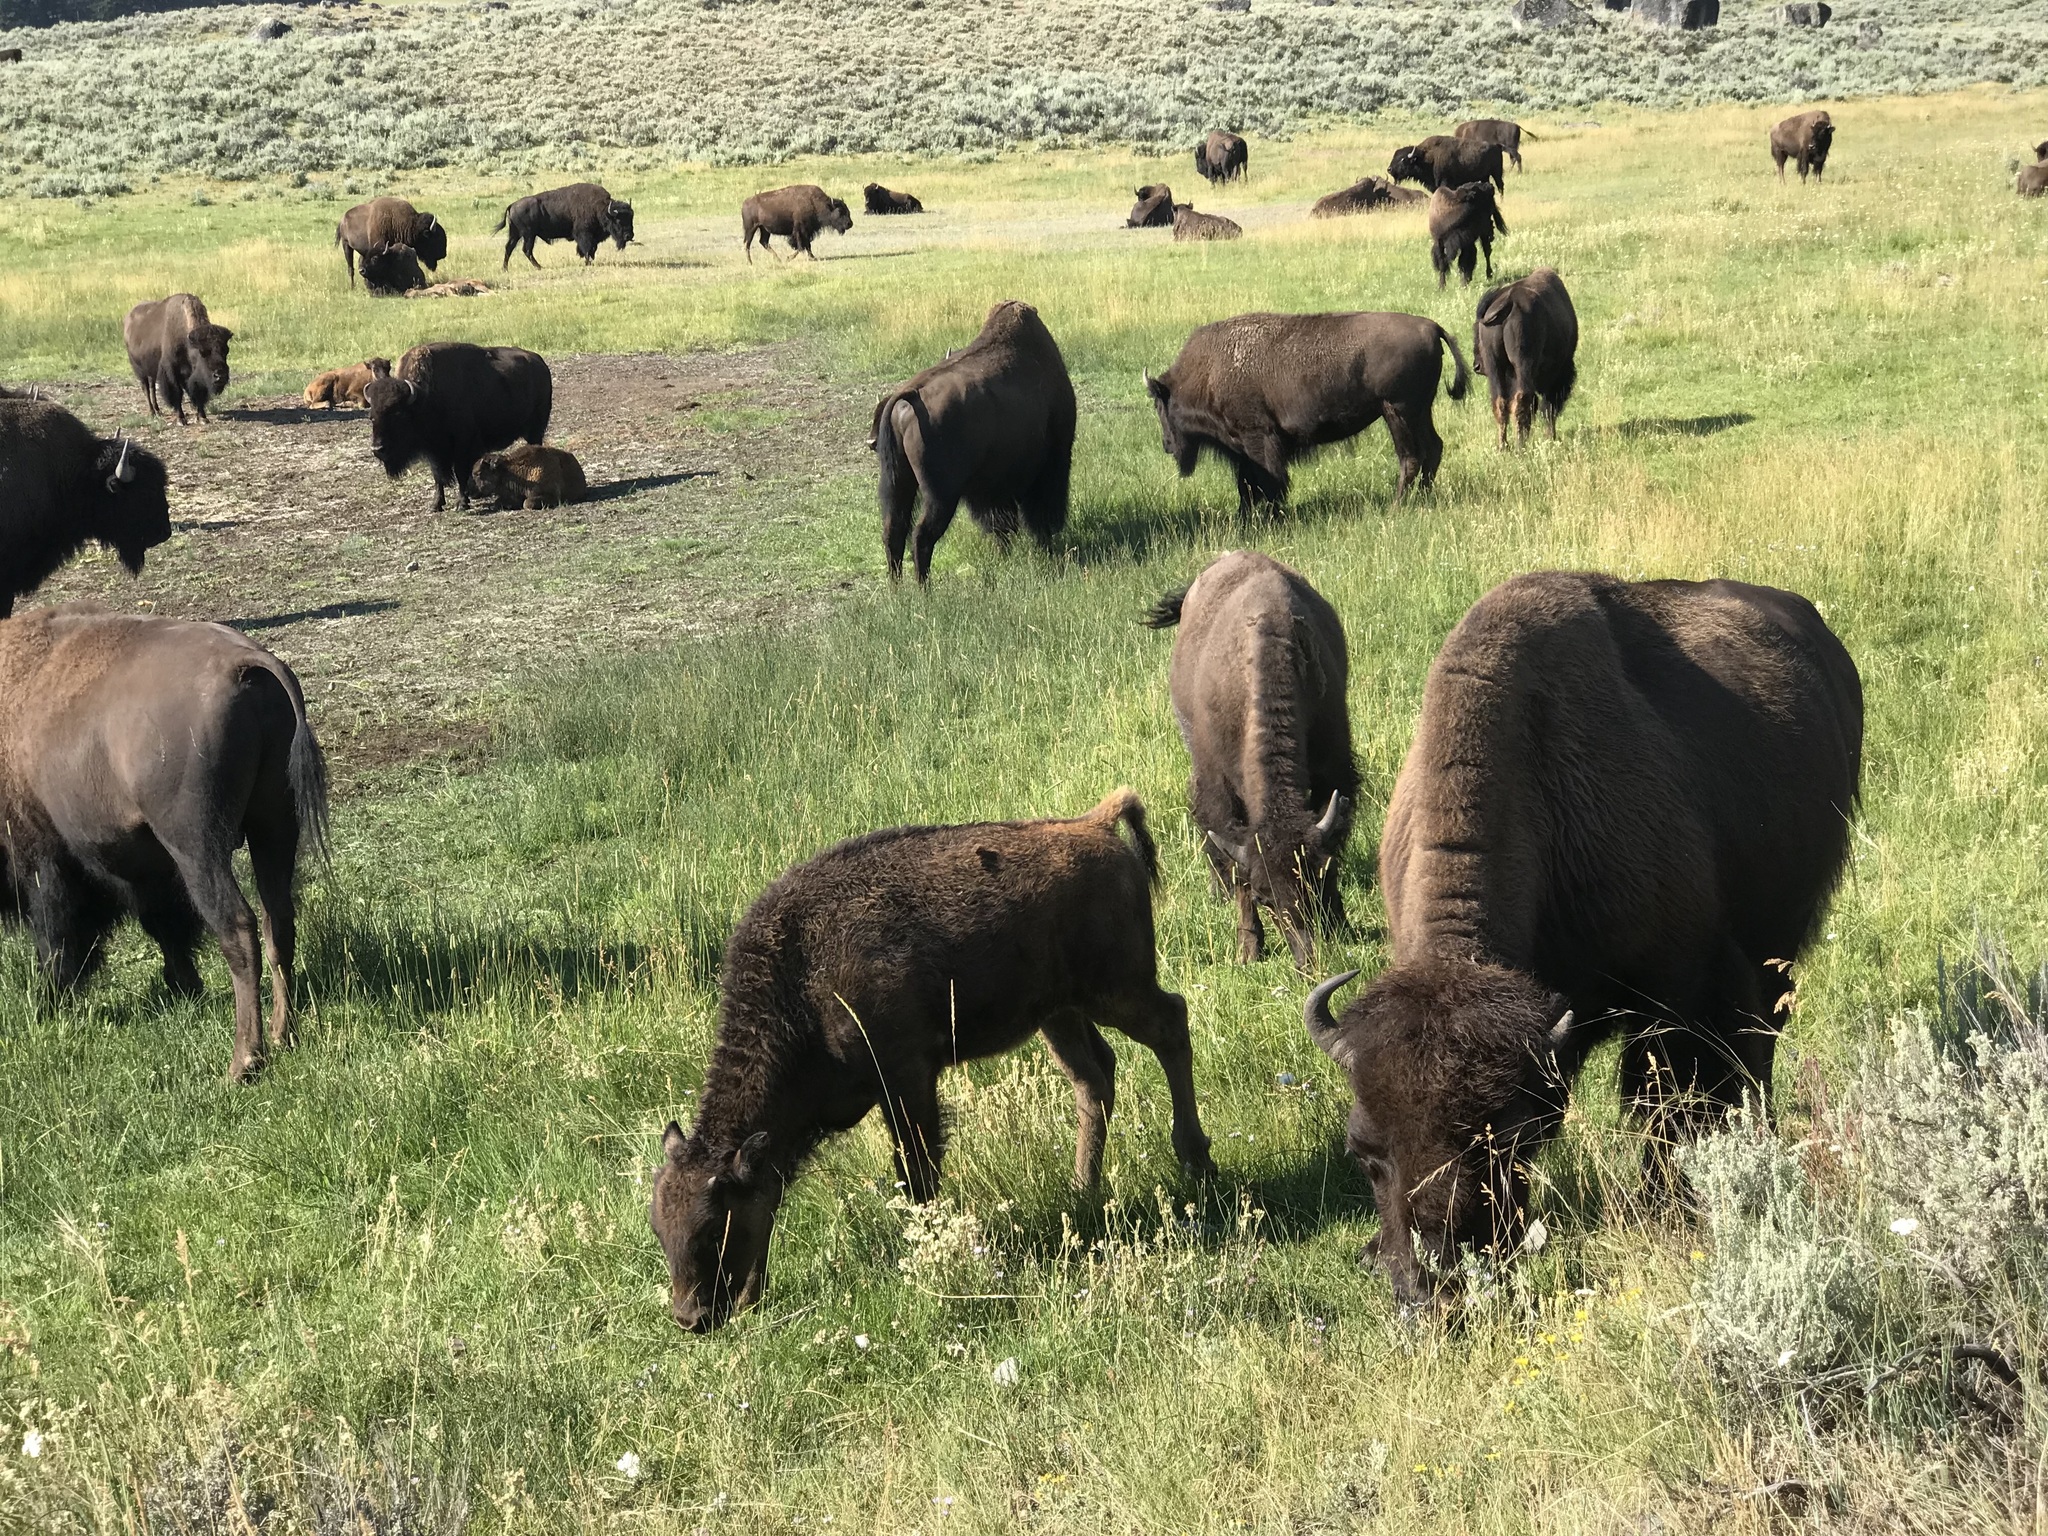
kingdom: Animalia
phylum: Chordata
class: Mammalia
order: Artiodactyla
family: Bovidae
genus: Bison
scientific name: Bison bison
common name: American bison
